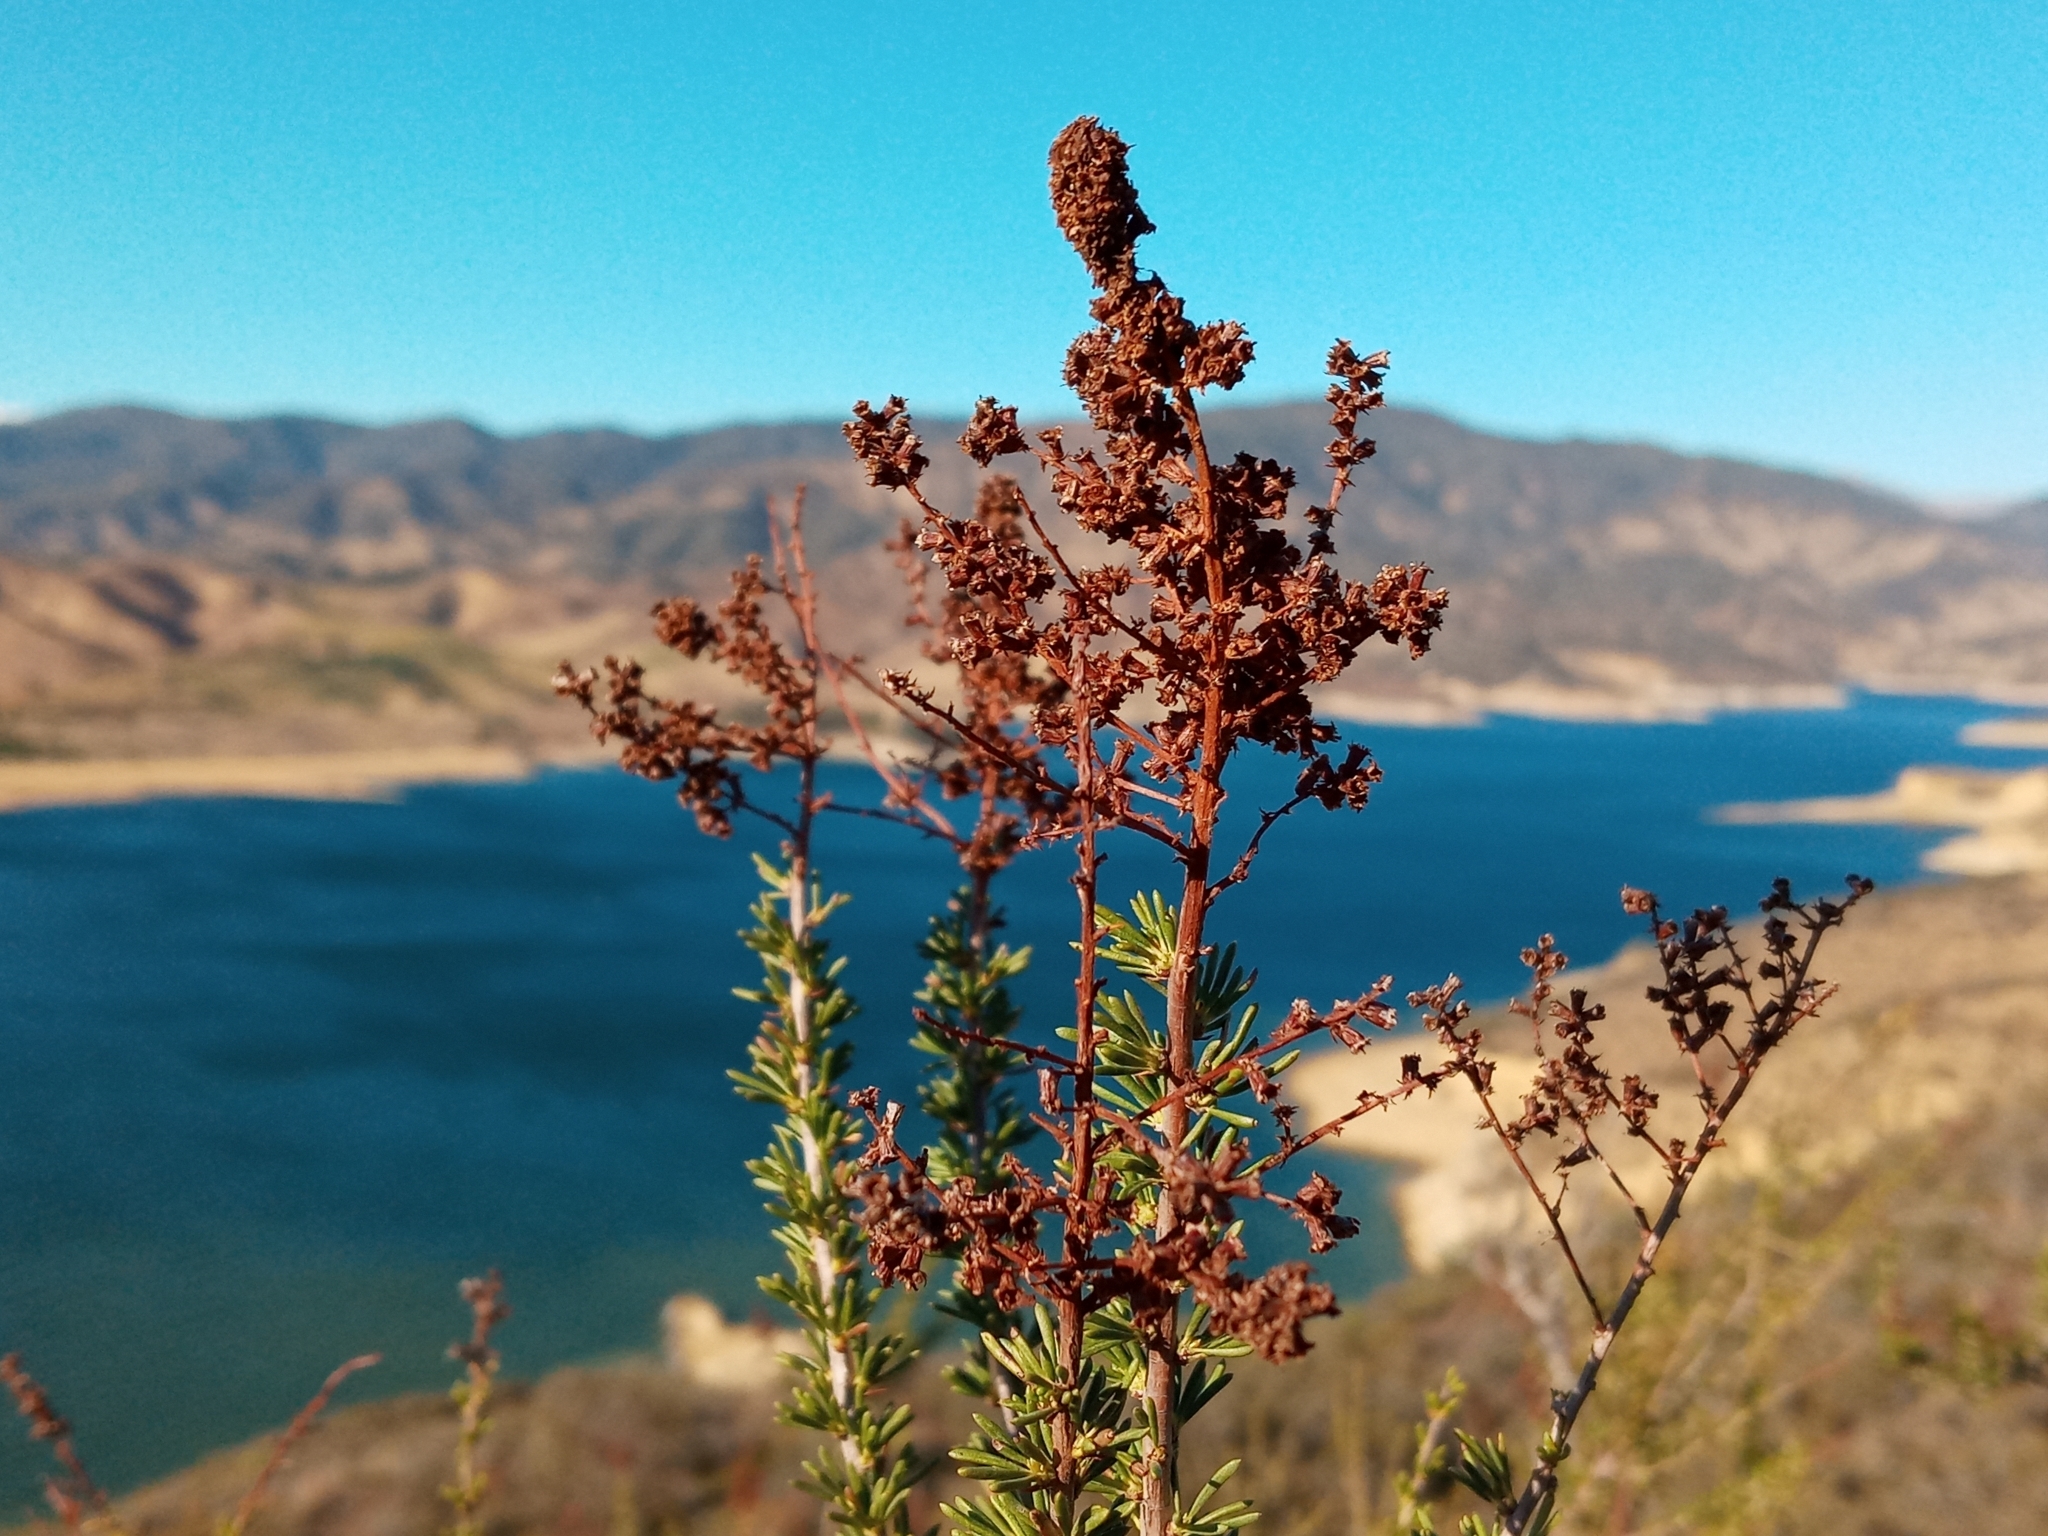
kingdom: Plantae
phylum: Tracheophyta
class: Magnoliopsida
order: Rosales
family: Rosaceae
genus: Adenostoma
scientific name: Adenostoma fasciculatum
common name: Chamise
